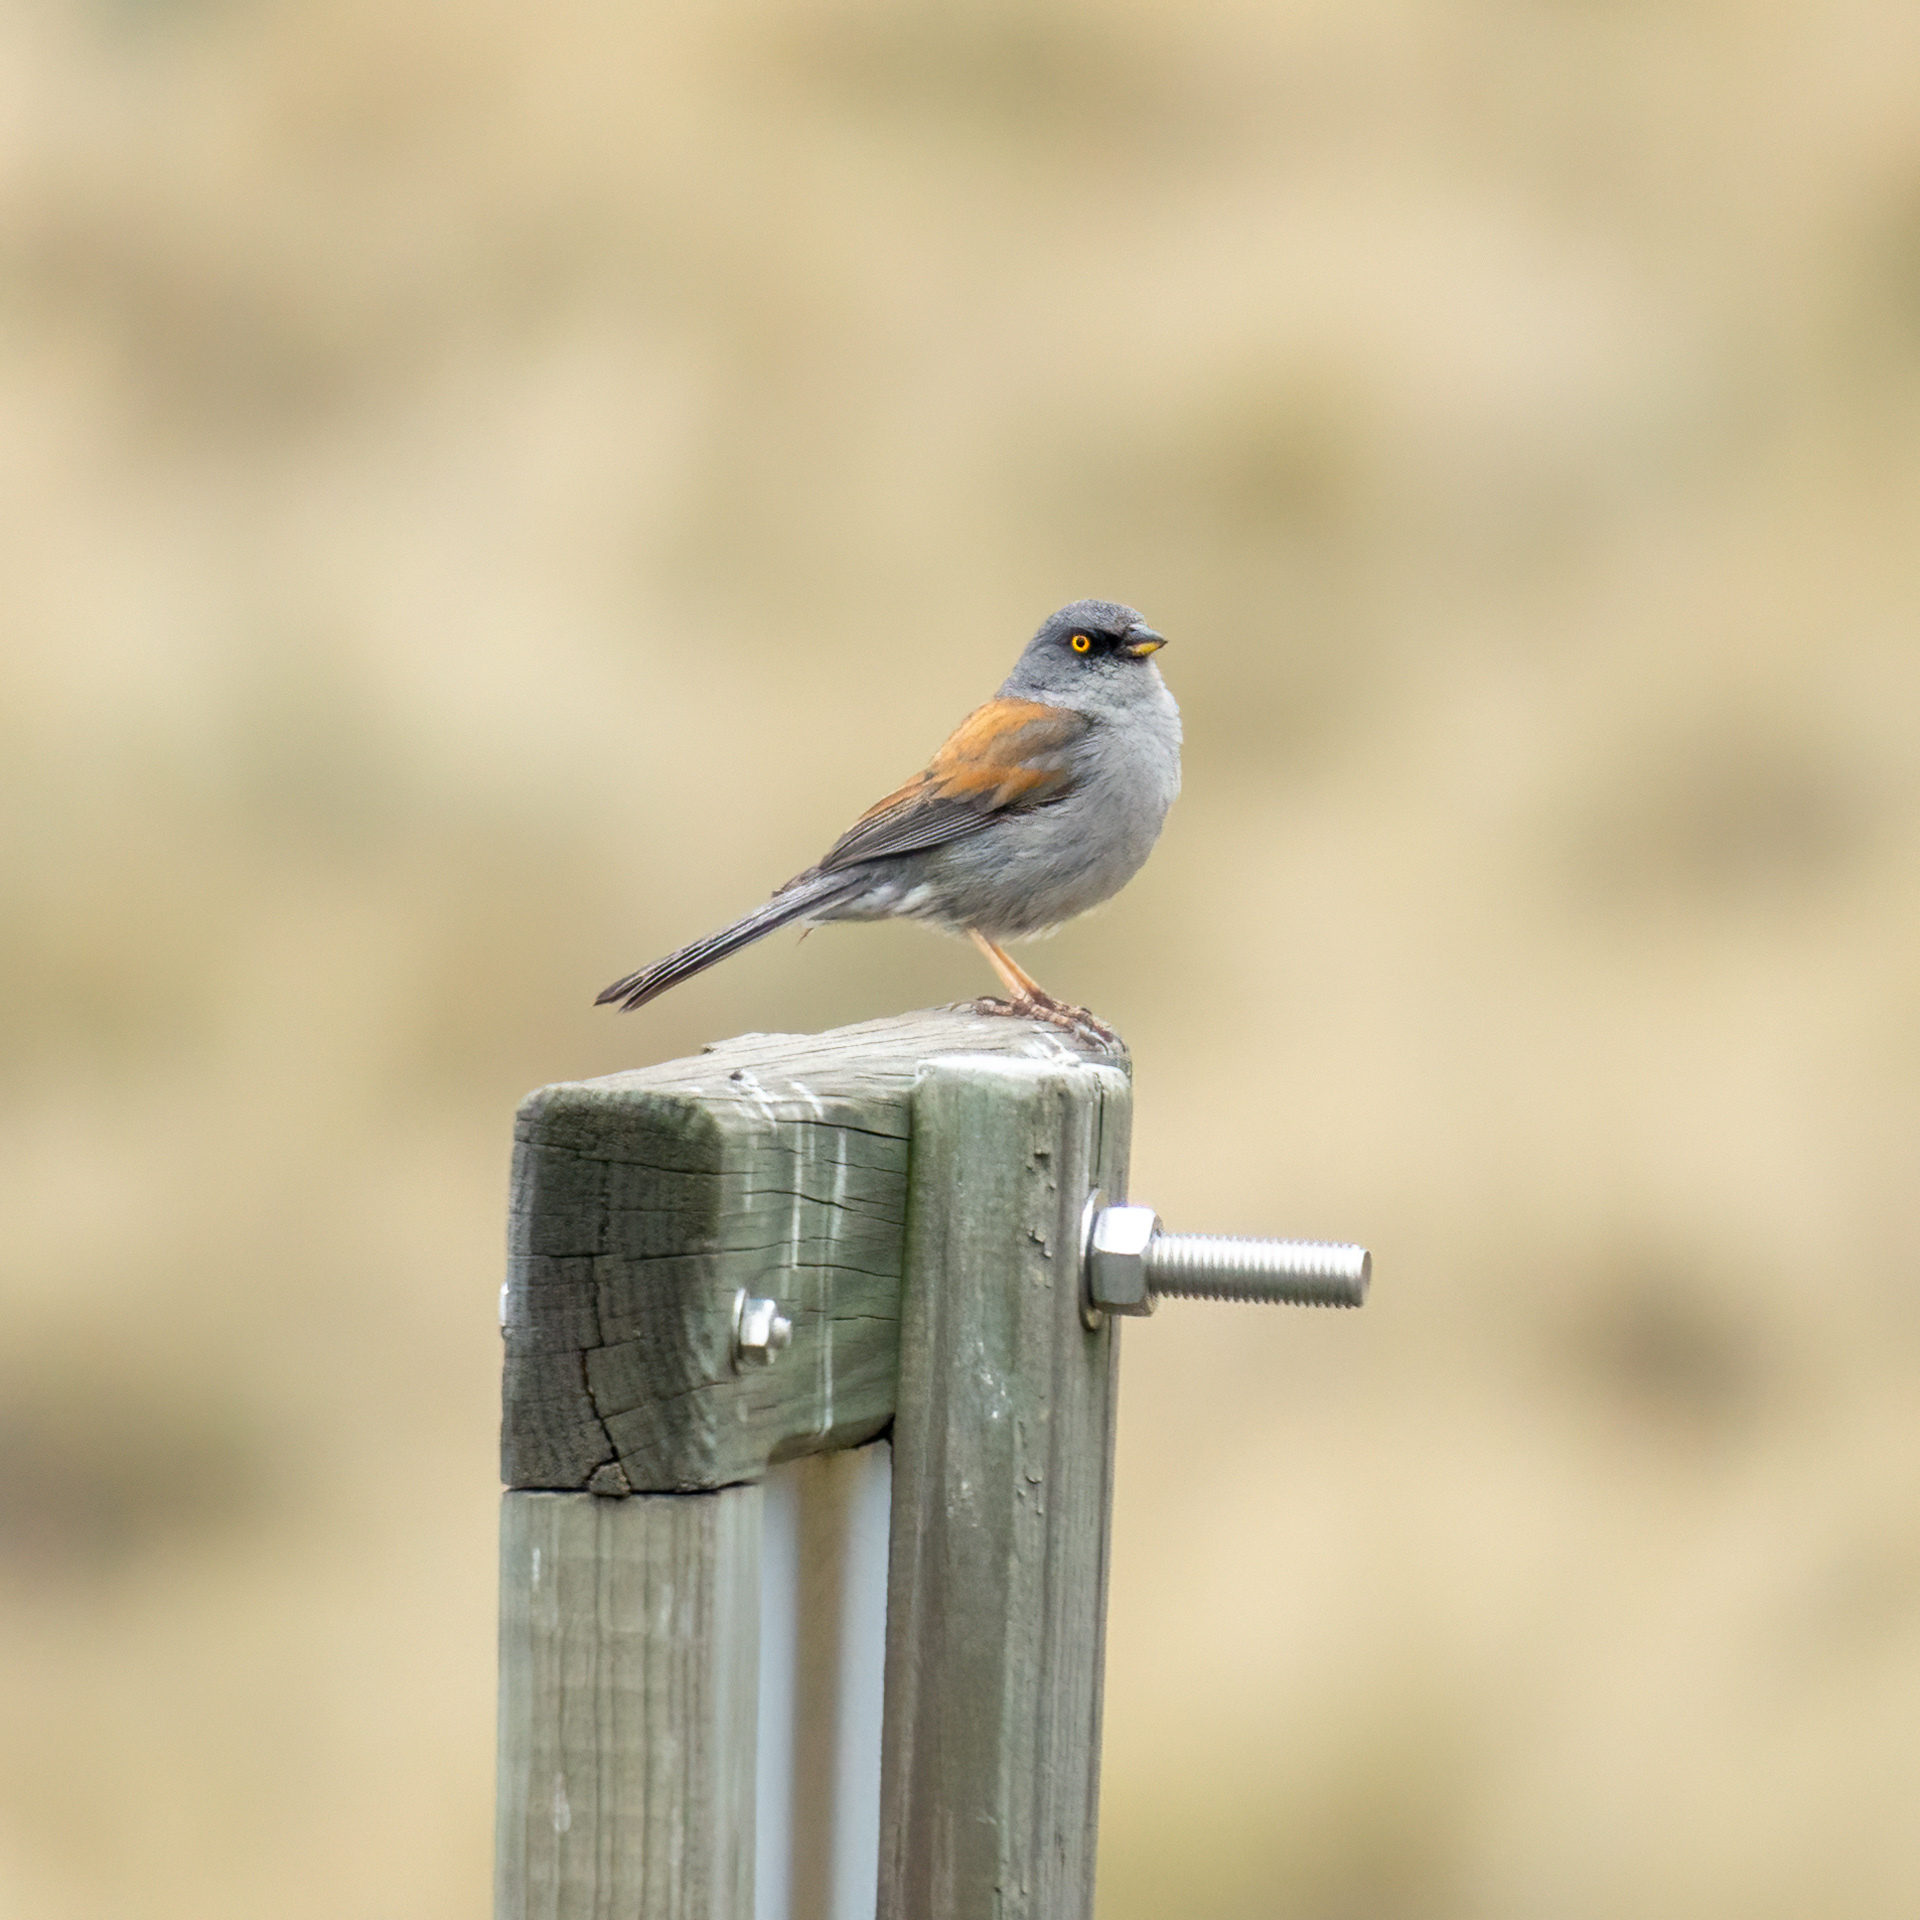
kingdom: Animalia
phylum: Chordata
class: Aves
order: Passeriformes
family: Passerellidae
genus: Junco
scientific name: Junco phaeonotus
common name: Yellow-eyed junco
